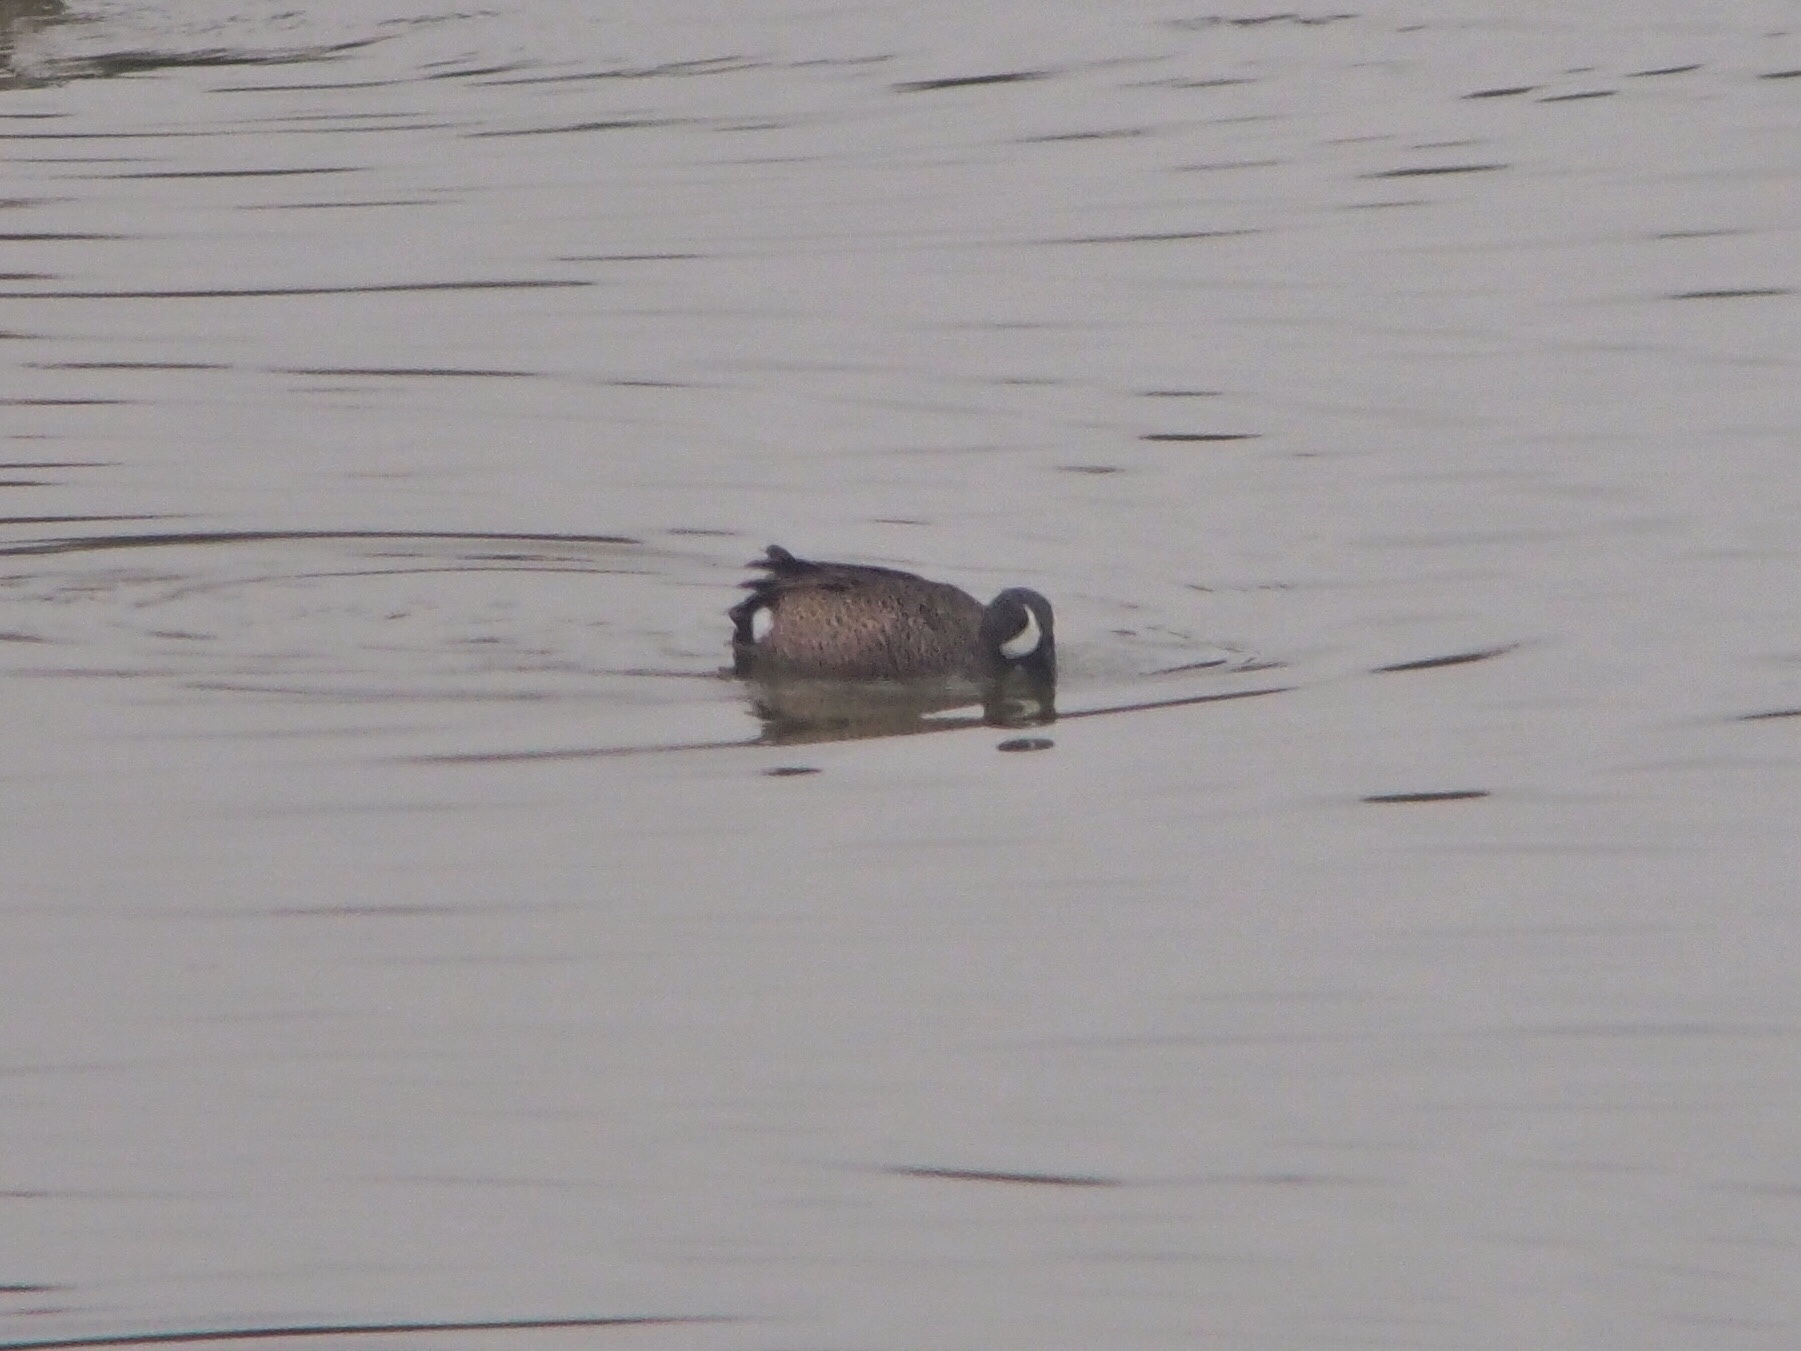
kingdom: Animalia
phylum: Chordata
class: Aves
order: Anseriformes
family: Anatidae
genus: Spatula
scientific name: Spatula discors
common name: Blue-winged teal
